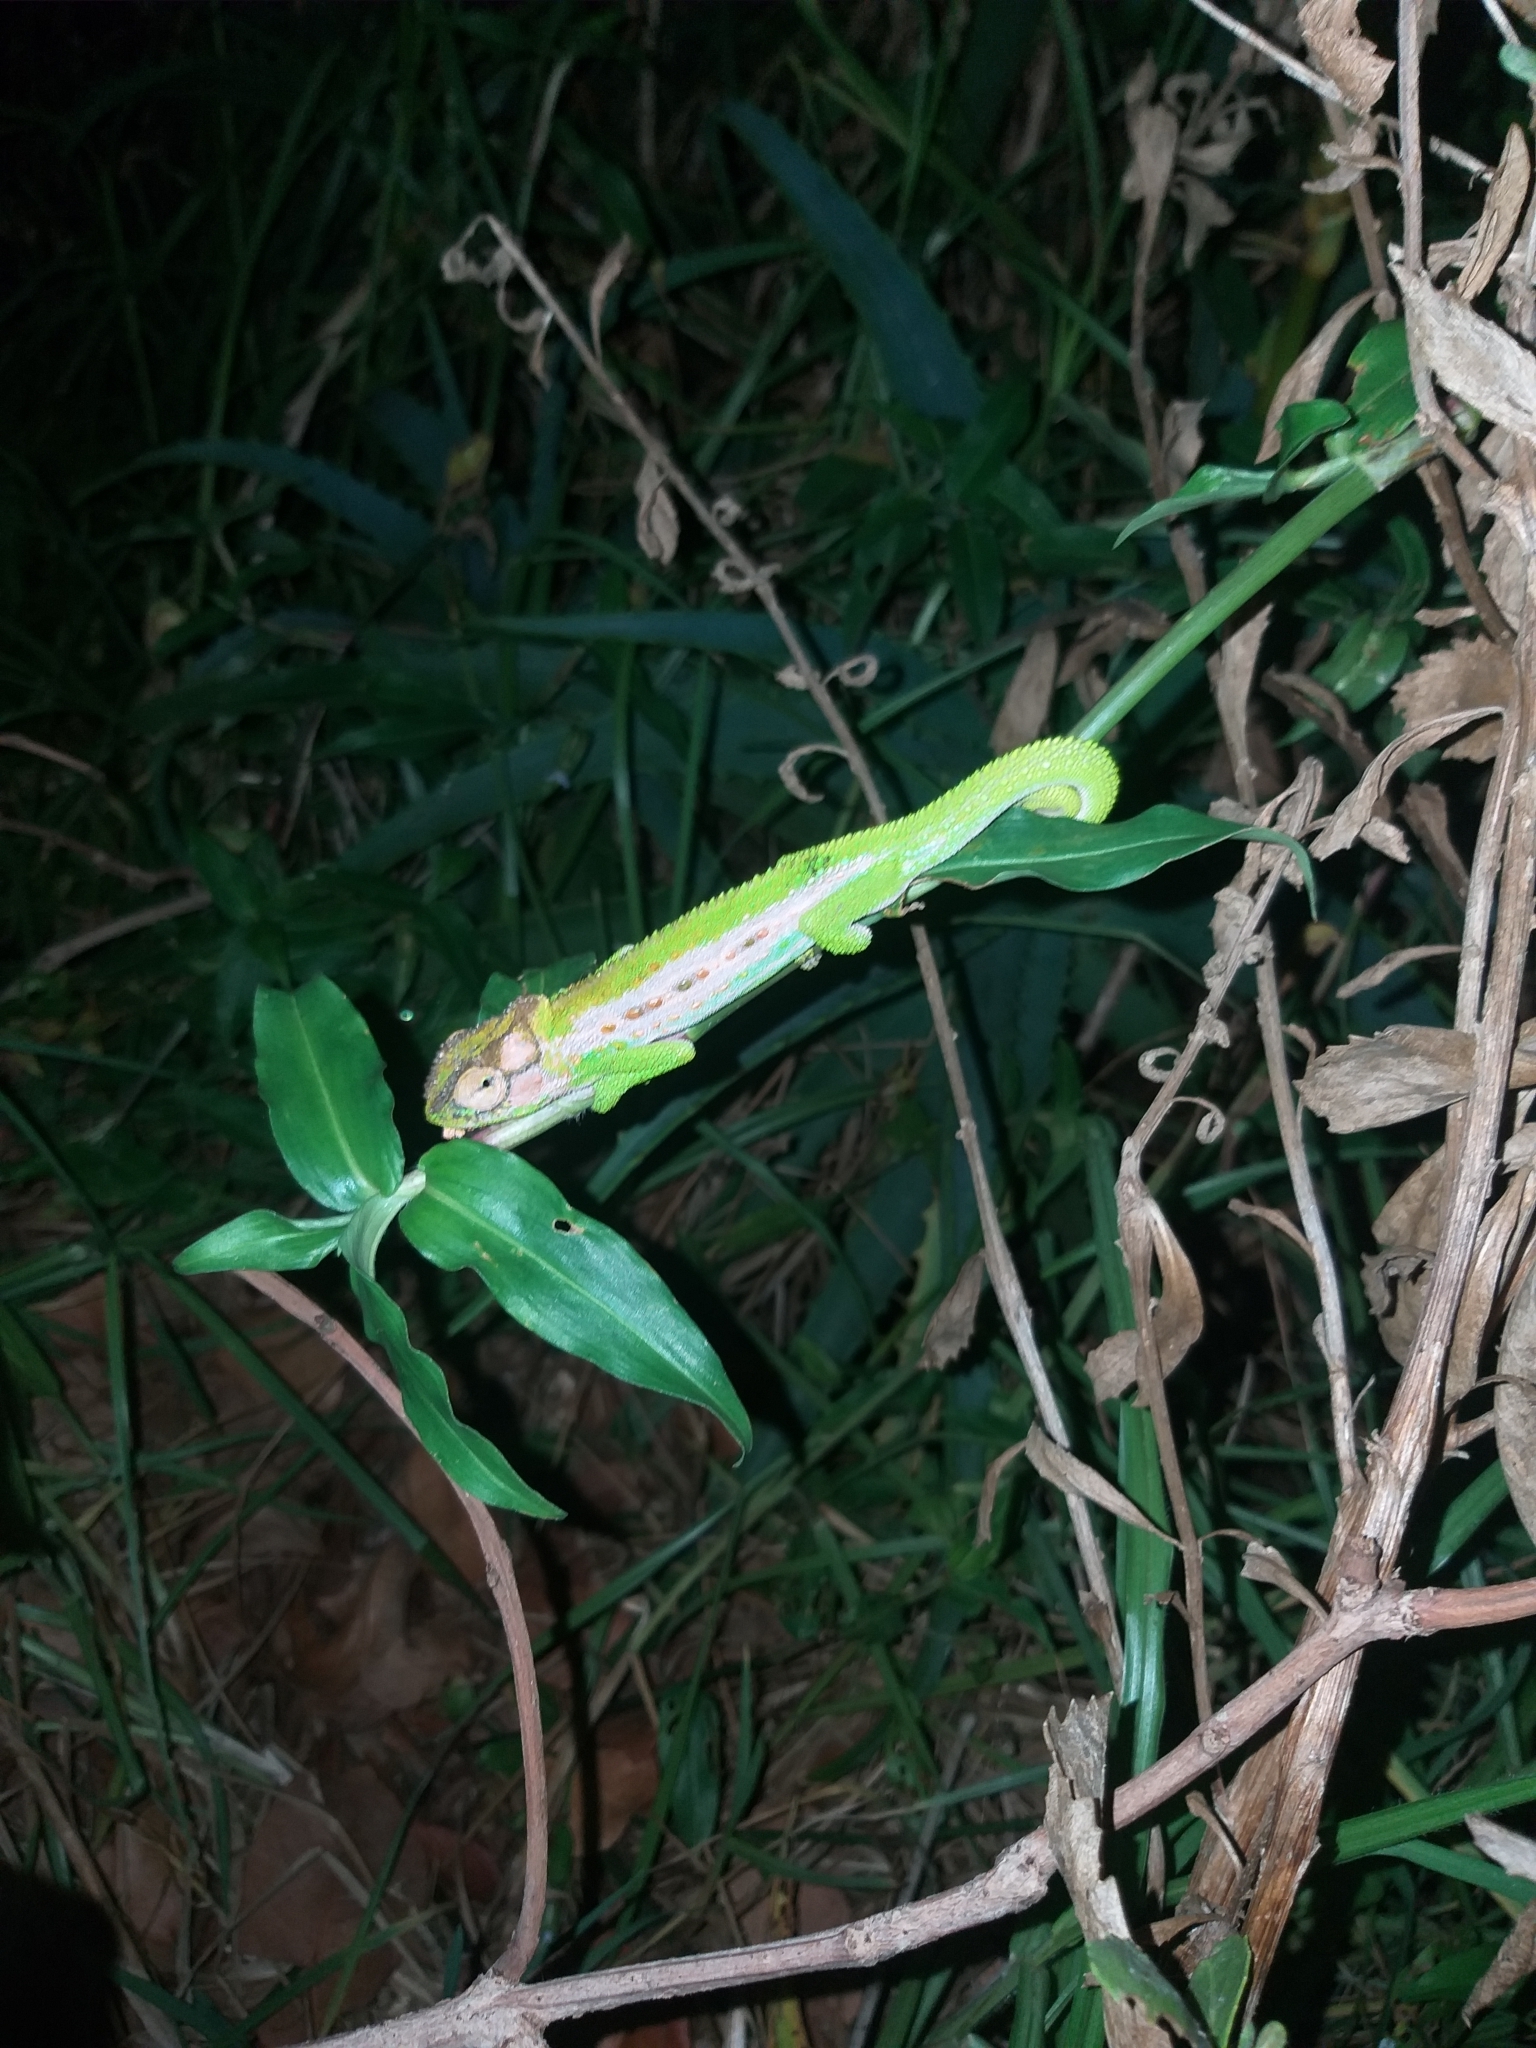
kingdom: Animalia
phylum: Chordata
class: Squamata
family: Chamaeleonidae
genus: Bradypodion
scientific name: Bradypodion pumilum
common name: Cape dwarf chameleon
